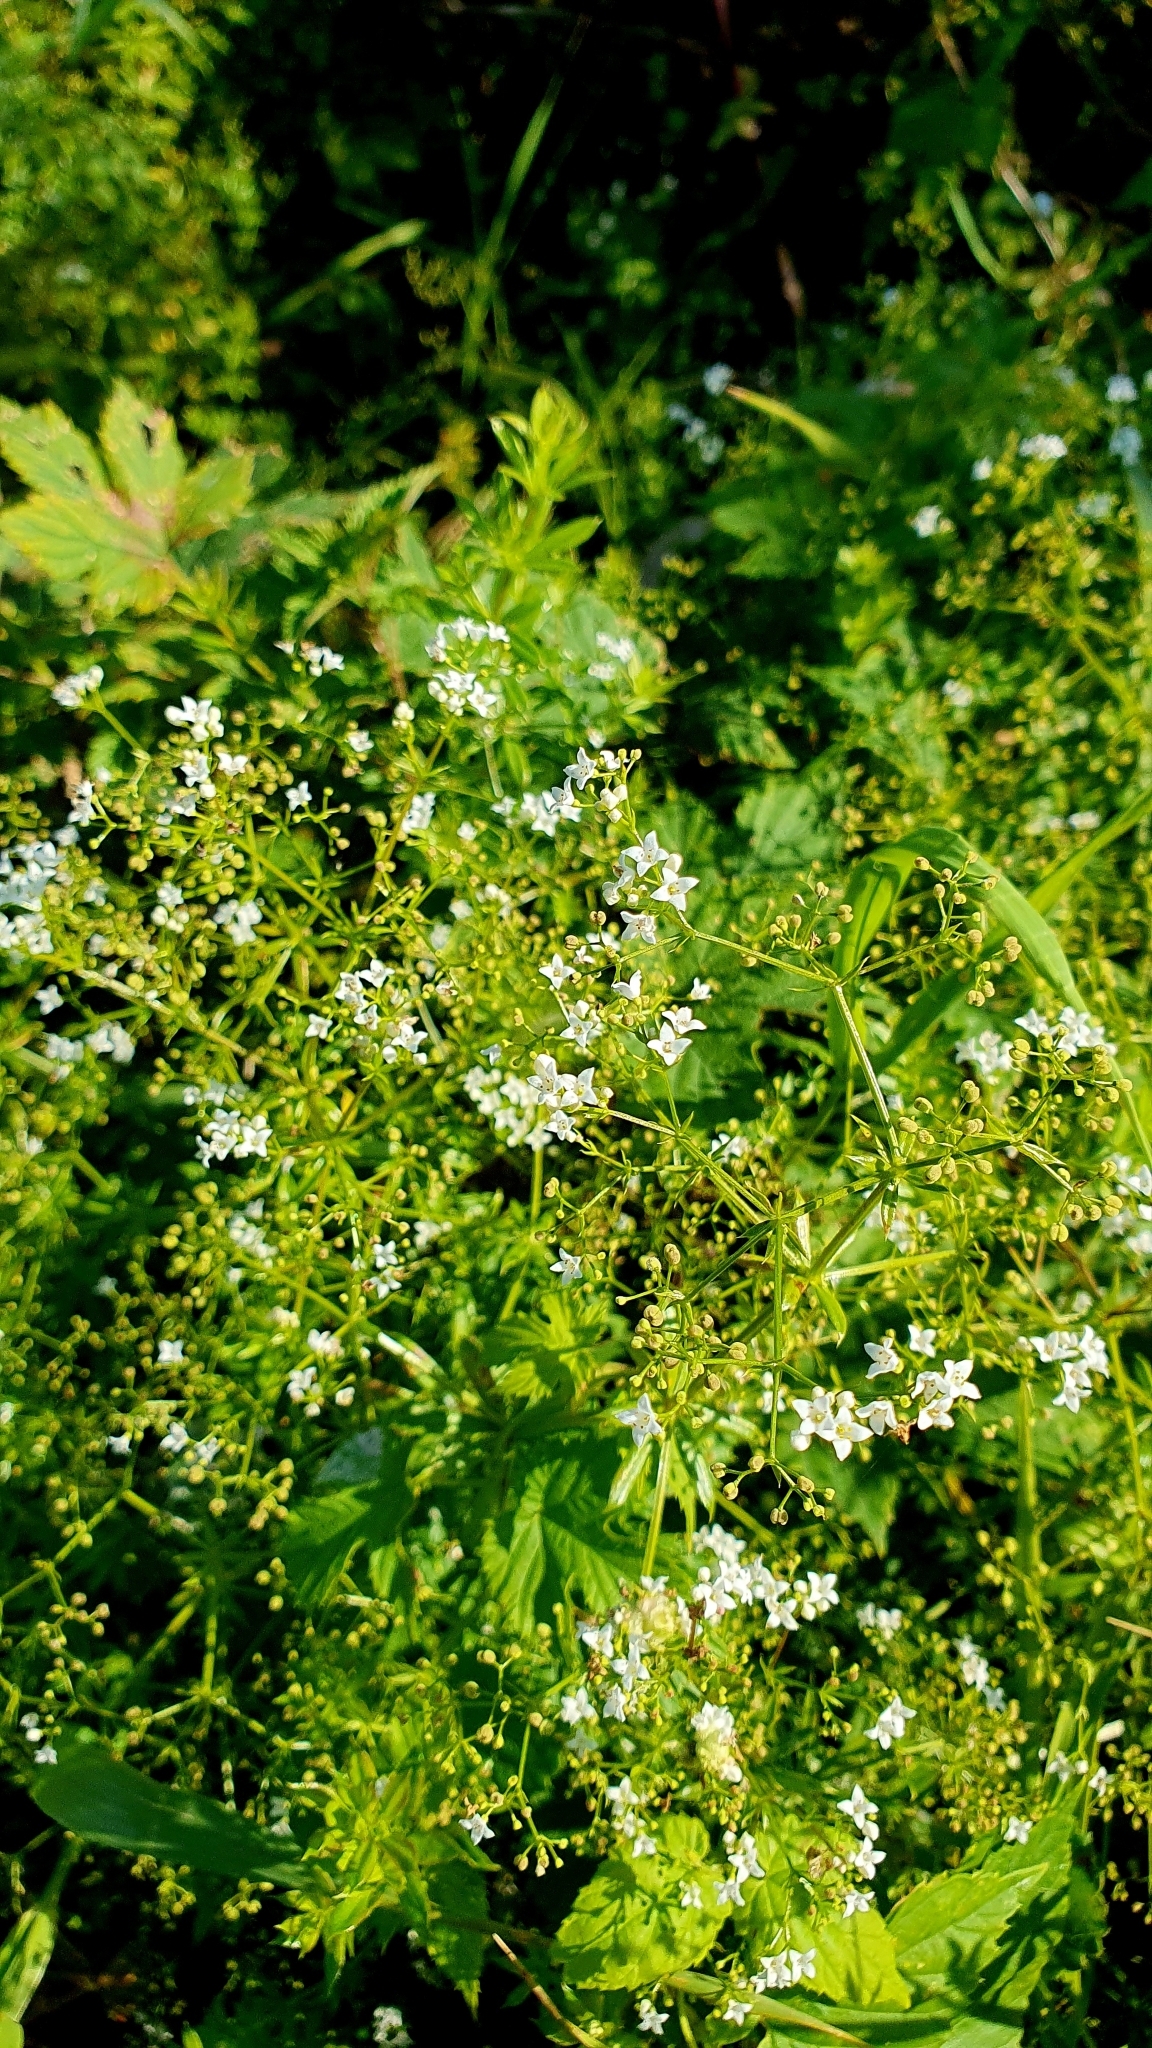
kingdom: Plantae
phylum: Tracheophyta
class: Magnoliopsida
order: Gentianales
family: Rubiaceae
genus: Galium
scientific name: Galium rivale
